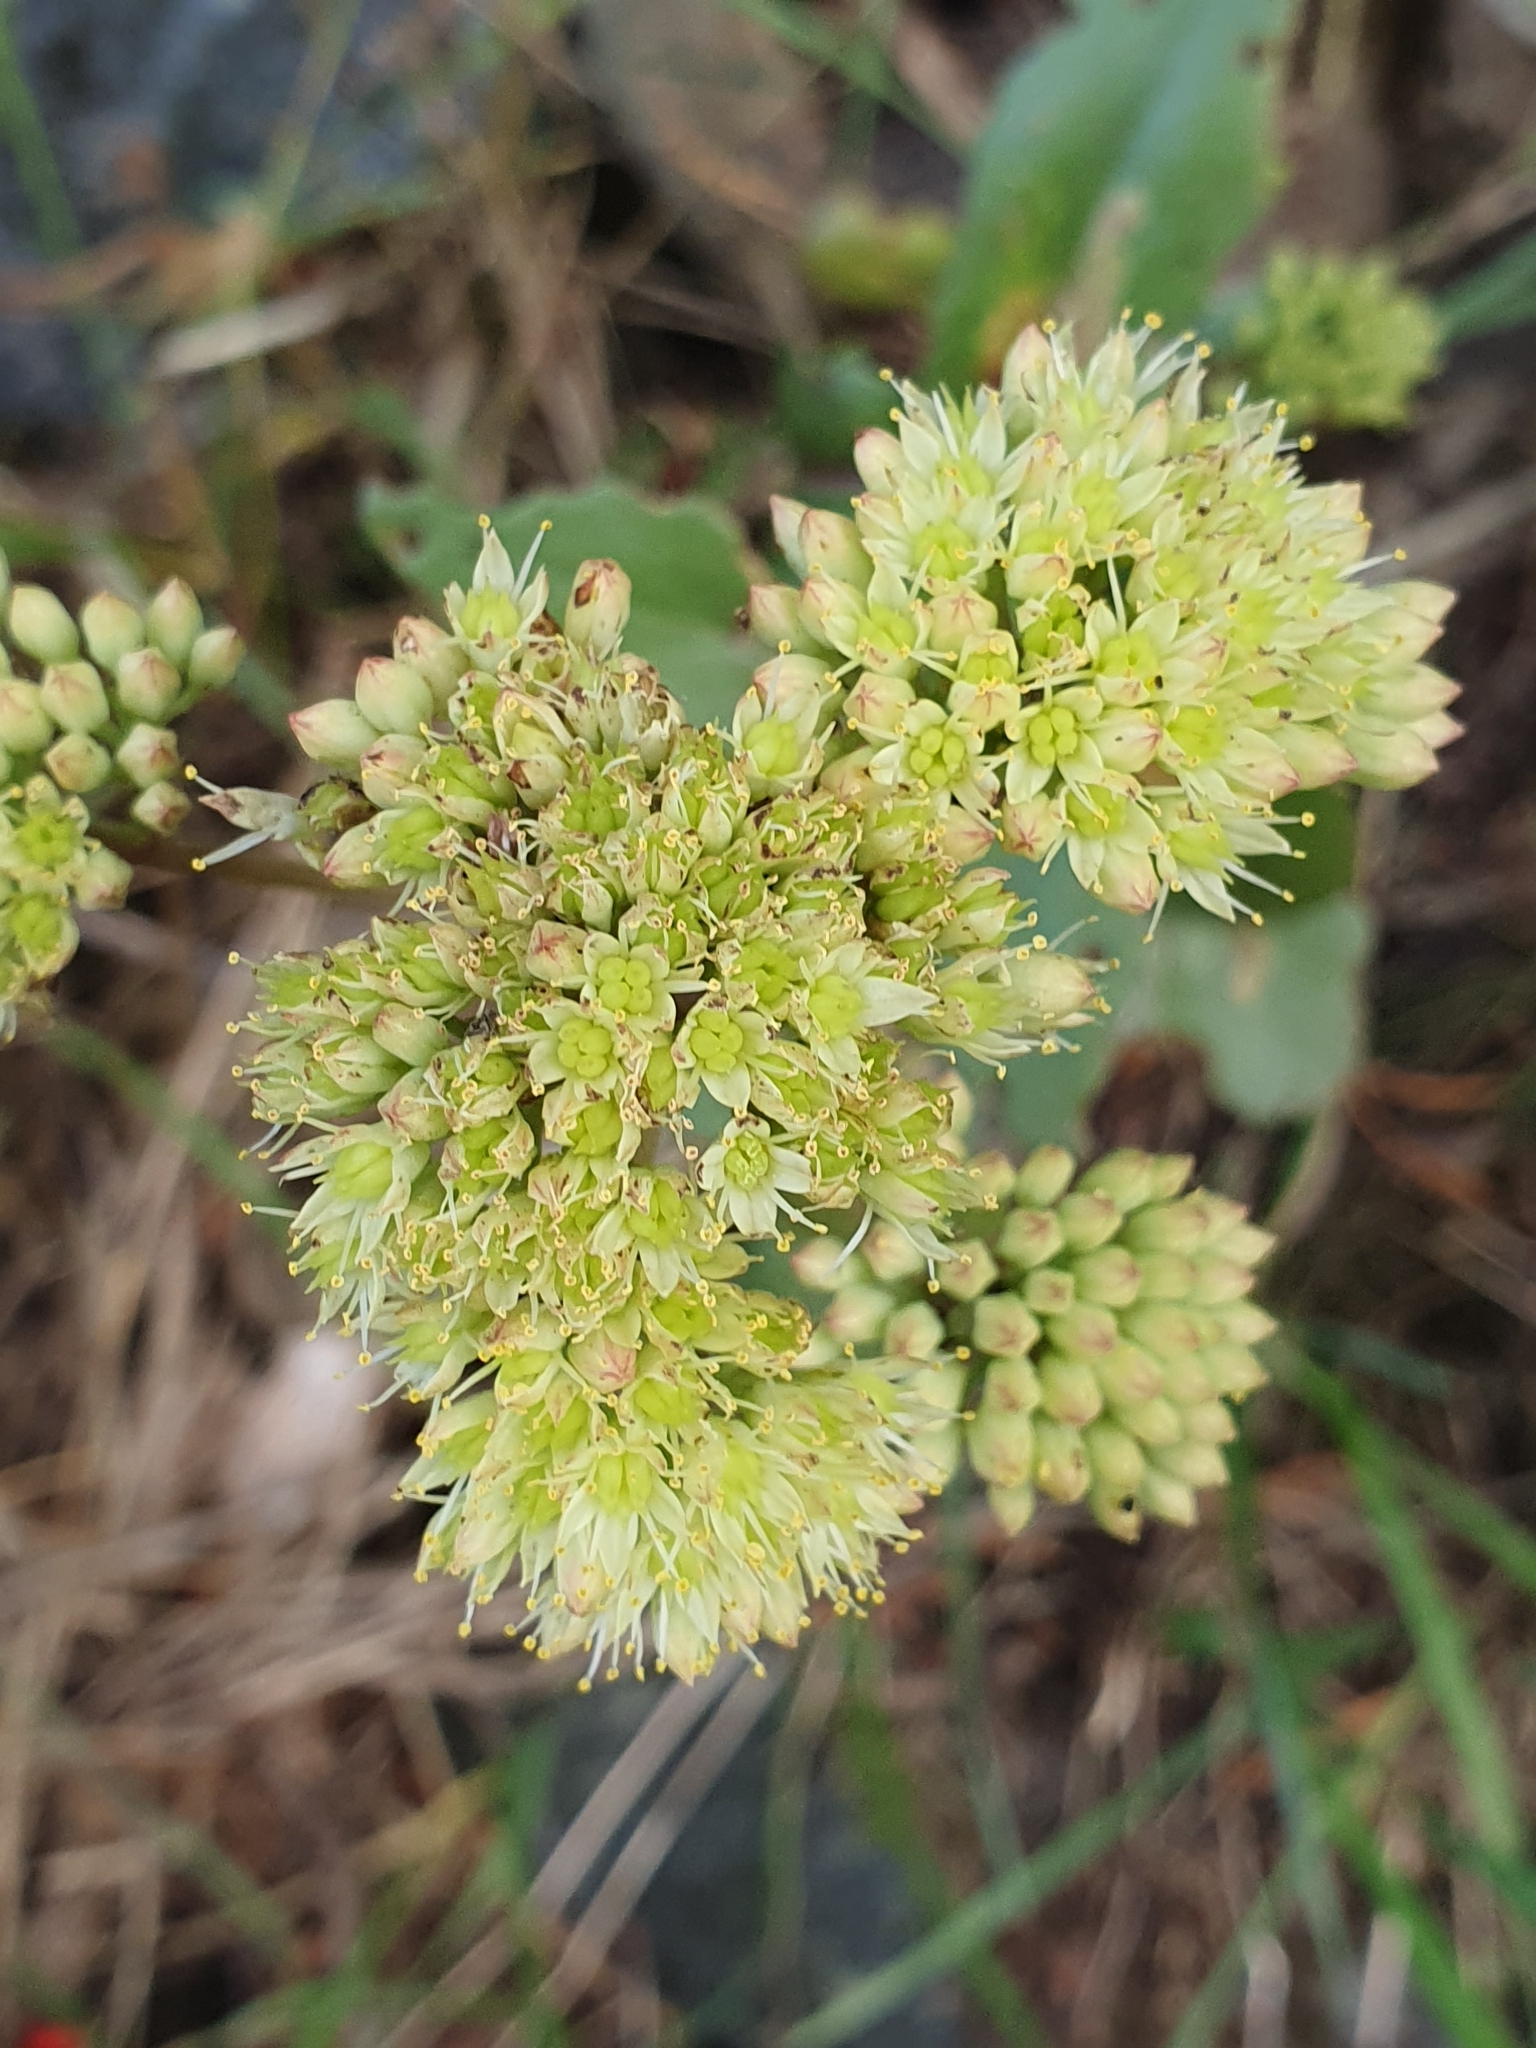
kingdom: Plantae
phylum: Tracheophyta
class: Magnoliopsida
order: Saxifragales
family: Crassulaceae
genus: Hylotelephium
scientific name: Hylotelephium maximum
